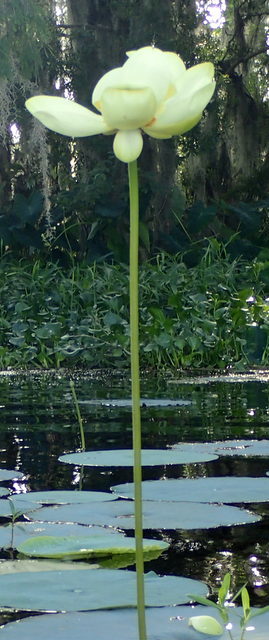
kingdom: Plantae
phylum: Tracheophyta
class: Magnoliopsida
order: Proteales
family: Nelumbonaceae
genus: Nelumbo
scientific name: Nelumbo lutea
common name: American lotus
